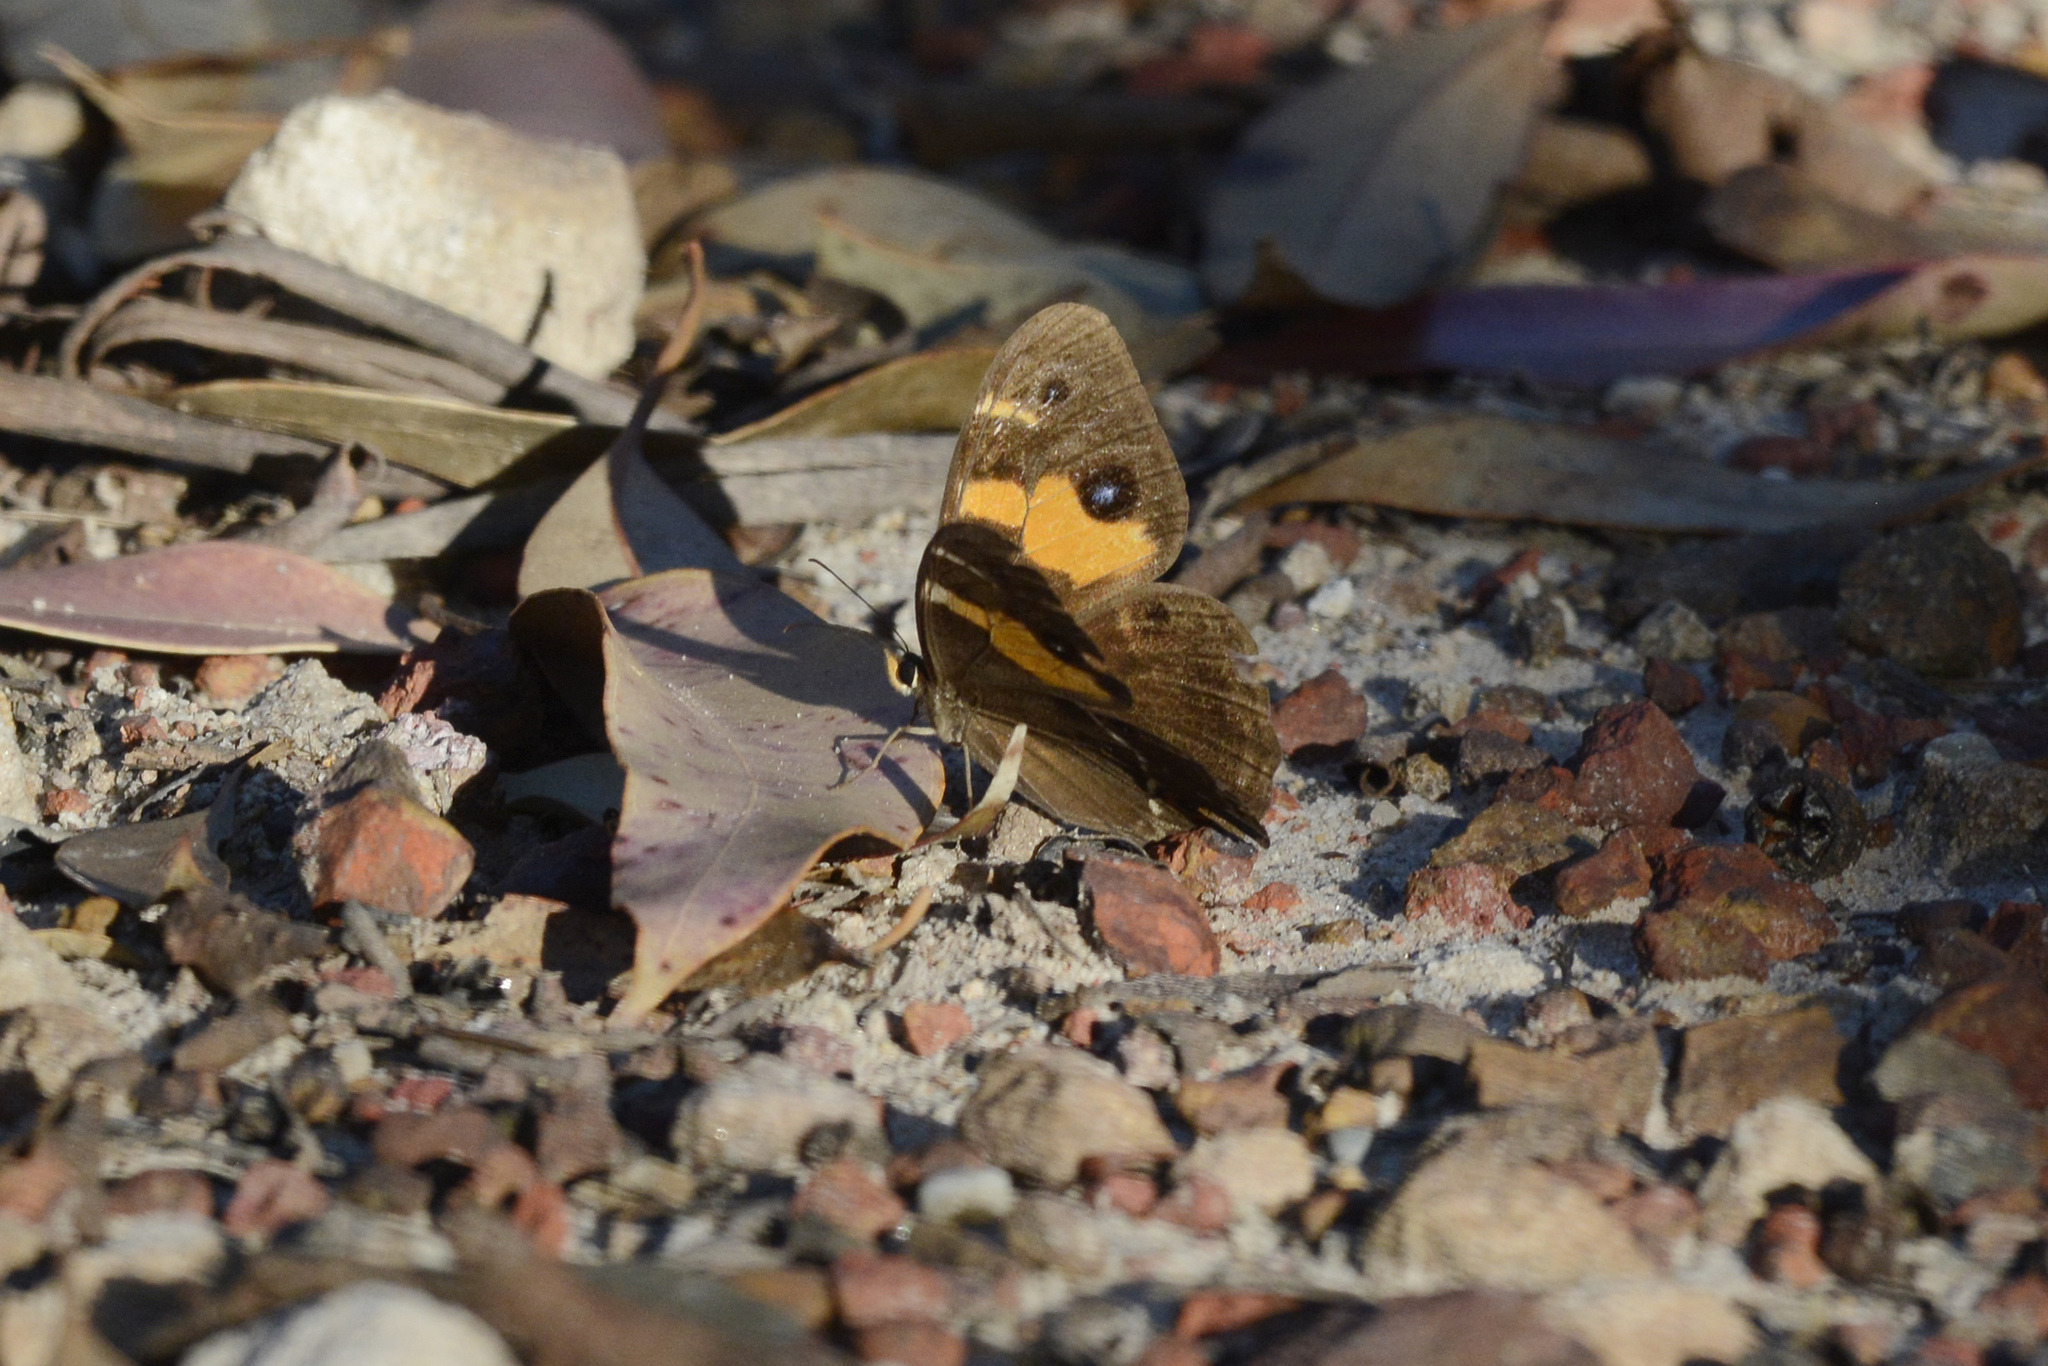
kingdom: Animalia
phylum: Arthropoda
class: Insecta
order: Lepidoptera
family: Nymphalidae
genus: Tisiphone
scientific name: Tisiphone abeona
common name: Swordgrass brown
